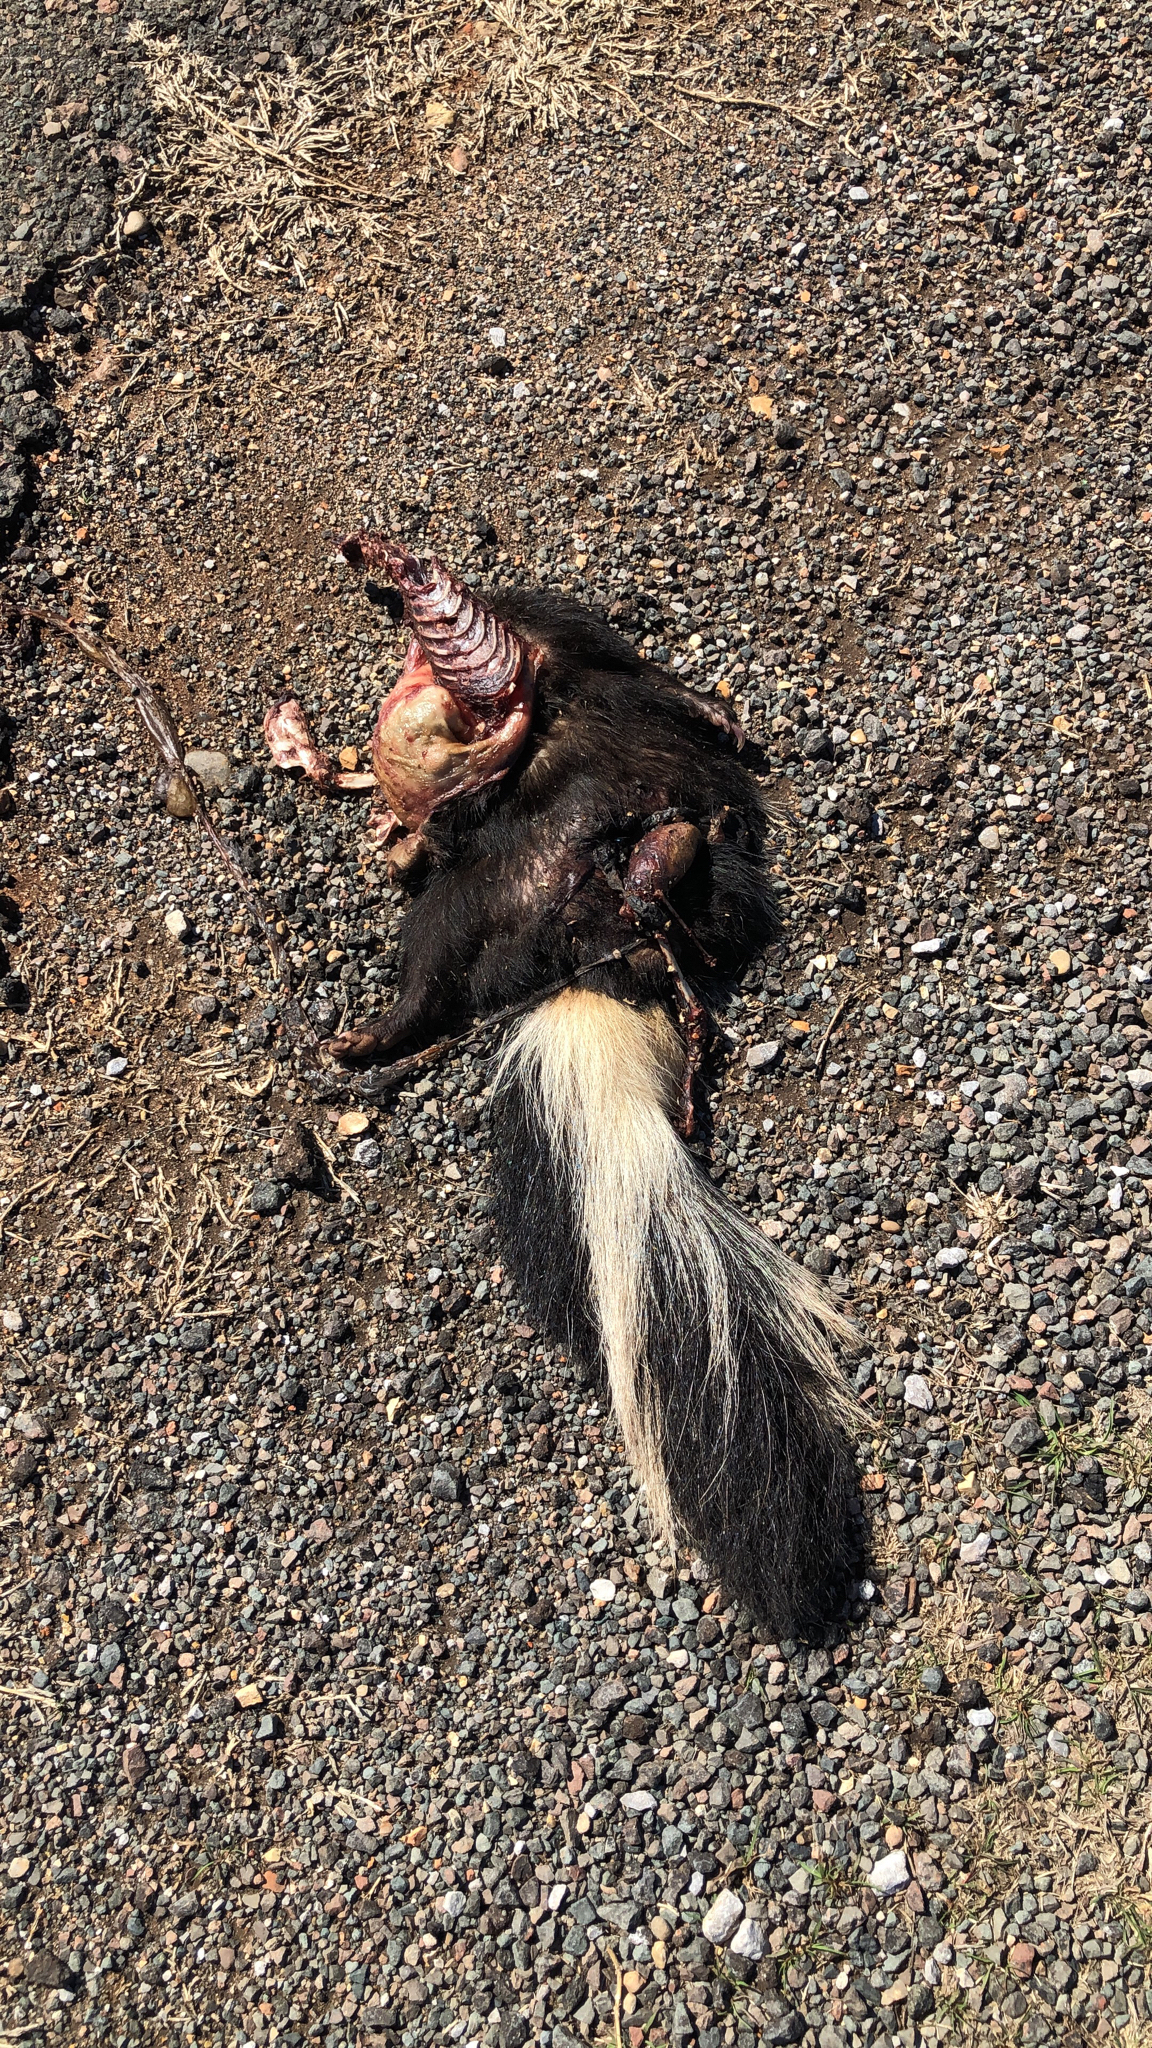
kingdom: Animalia
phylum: Chordata
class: Mammalia
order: Carnivora
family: Mephitidae
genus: Mephitis
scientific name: Mephitis mephitis
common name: Striped skunk
